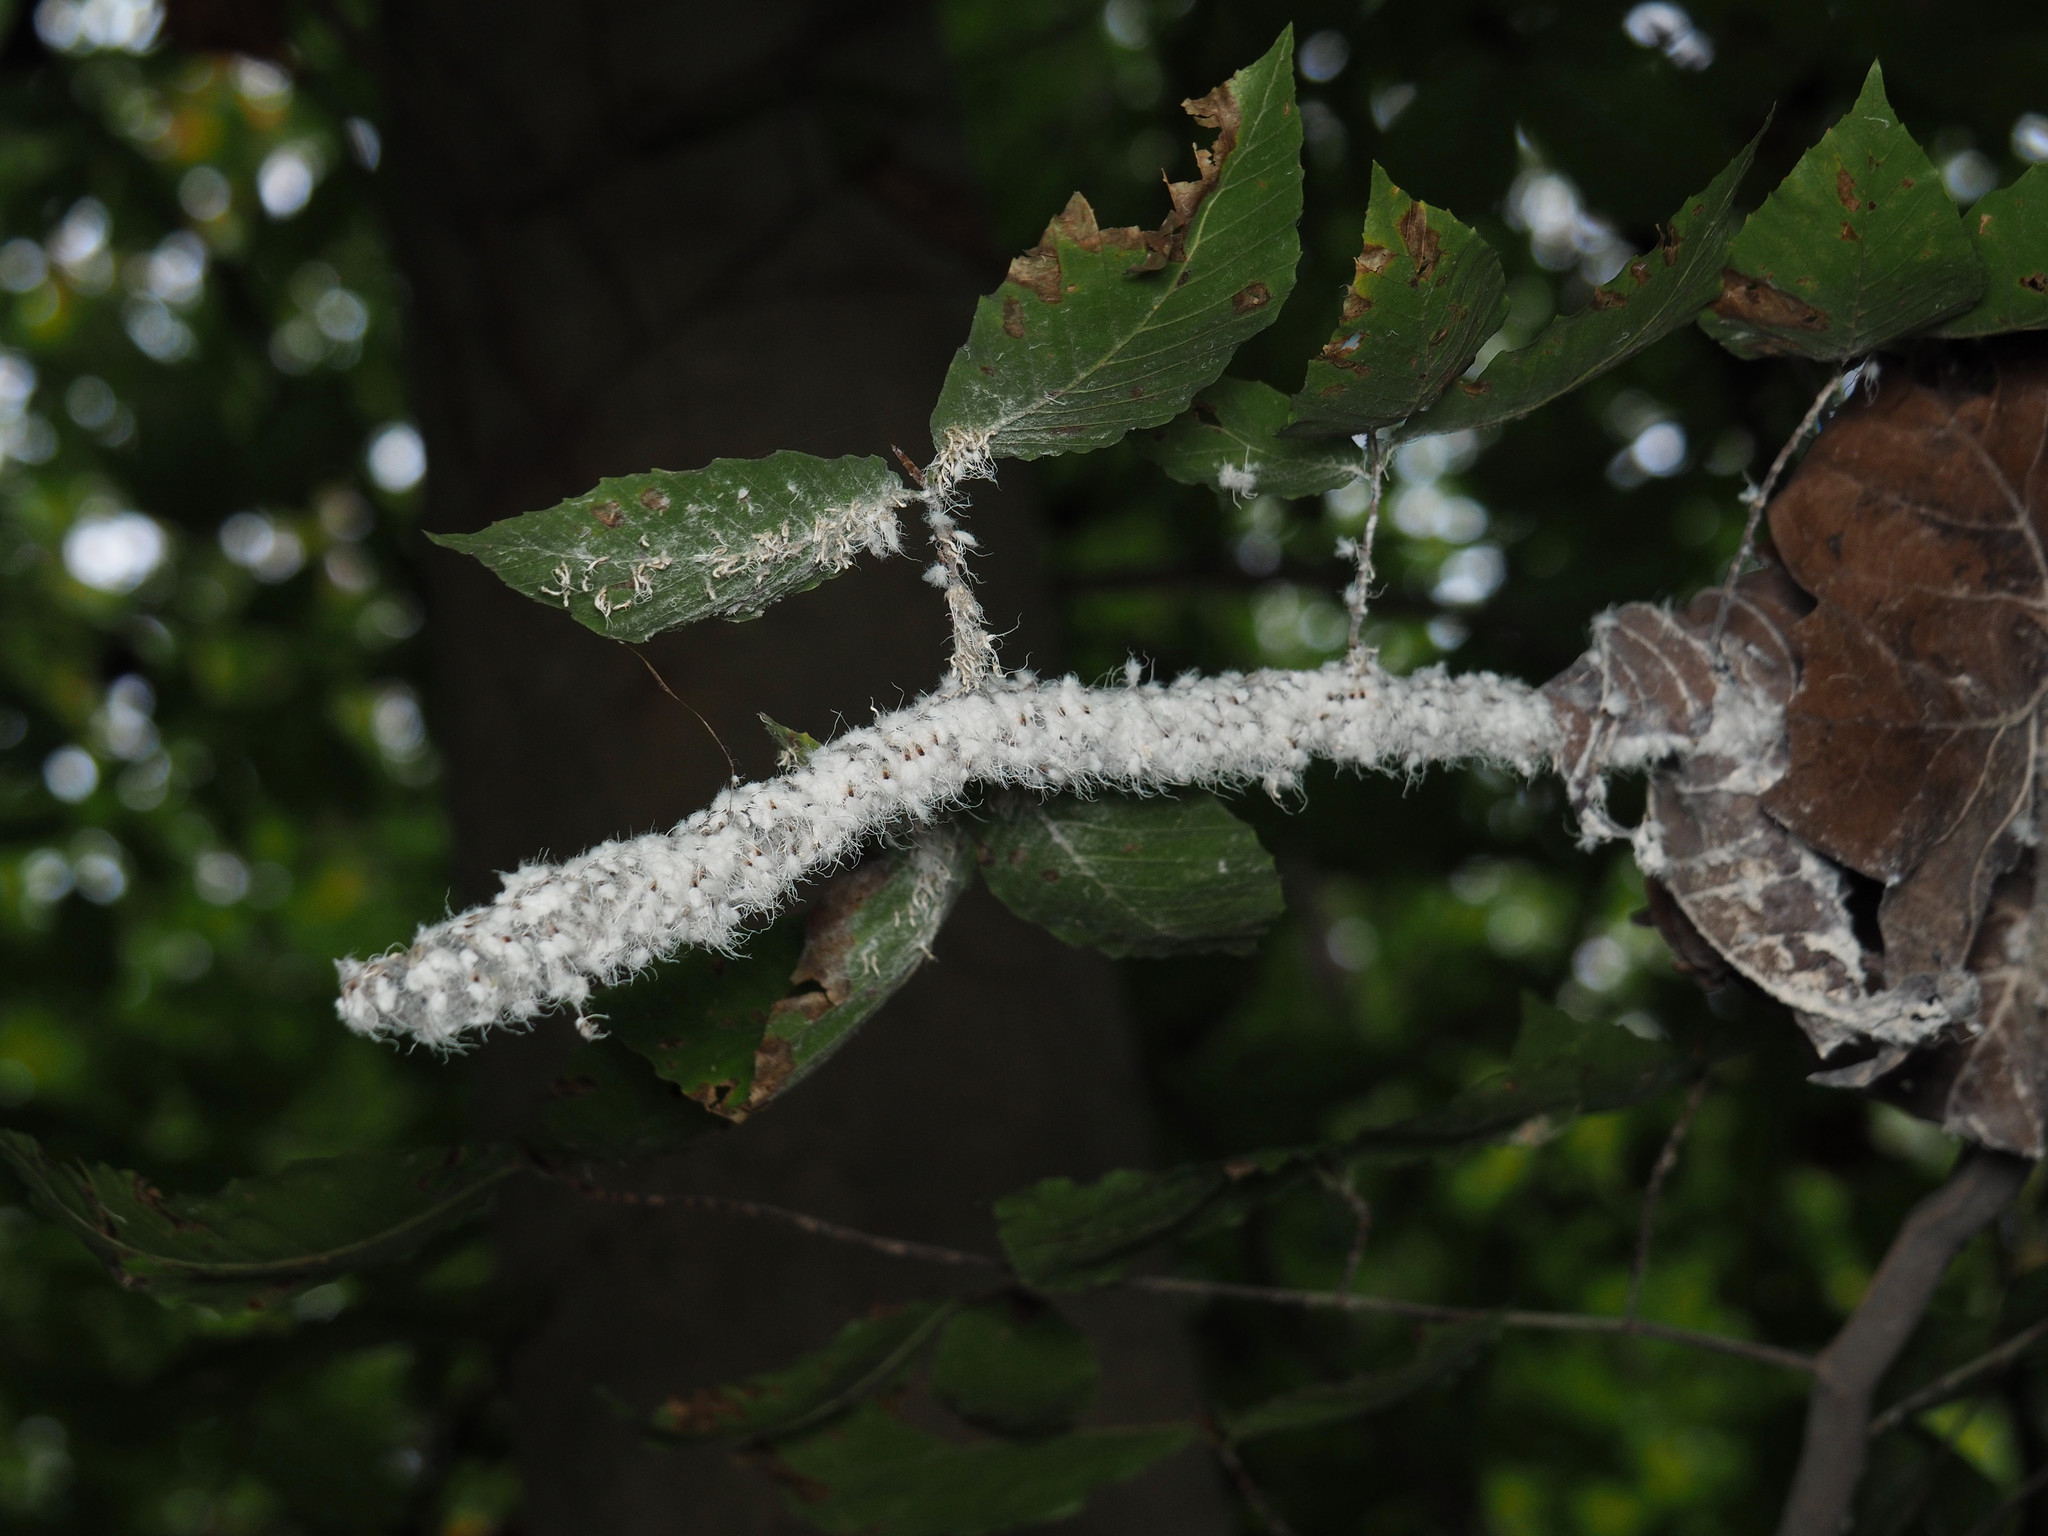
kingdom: Animalia
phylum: Arthropoda
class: Insecta
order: Hemiptera
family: Aphididae
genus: Grylloprociphilus
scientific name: Grylloprociphilus imbricator
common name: Beech blight aphid
